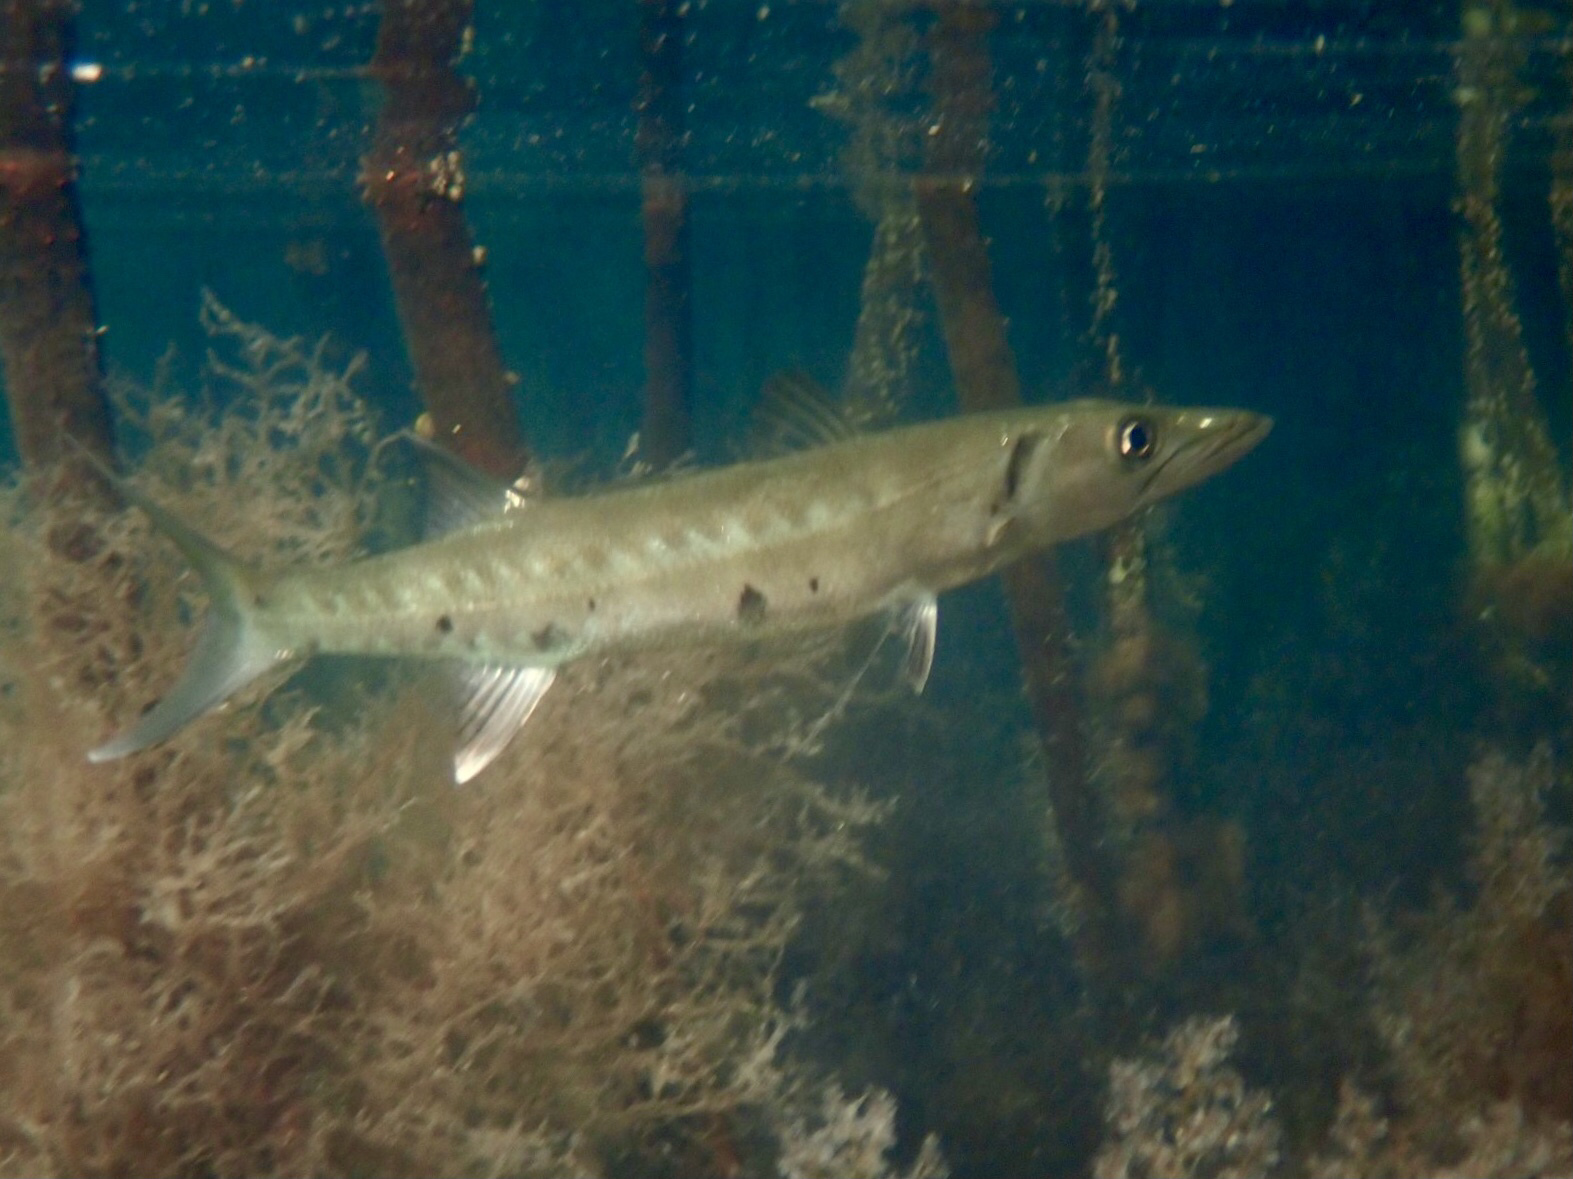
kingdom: Animalia
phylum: Chordata
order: Perciformes
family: Sphyraenidae
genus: Sphyraena
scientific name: Sphyraena barracuda
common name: Great barracuda
